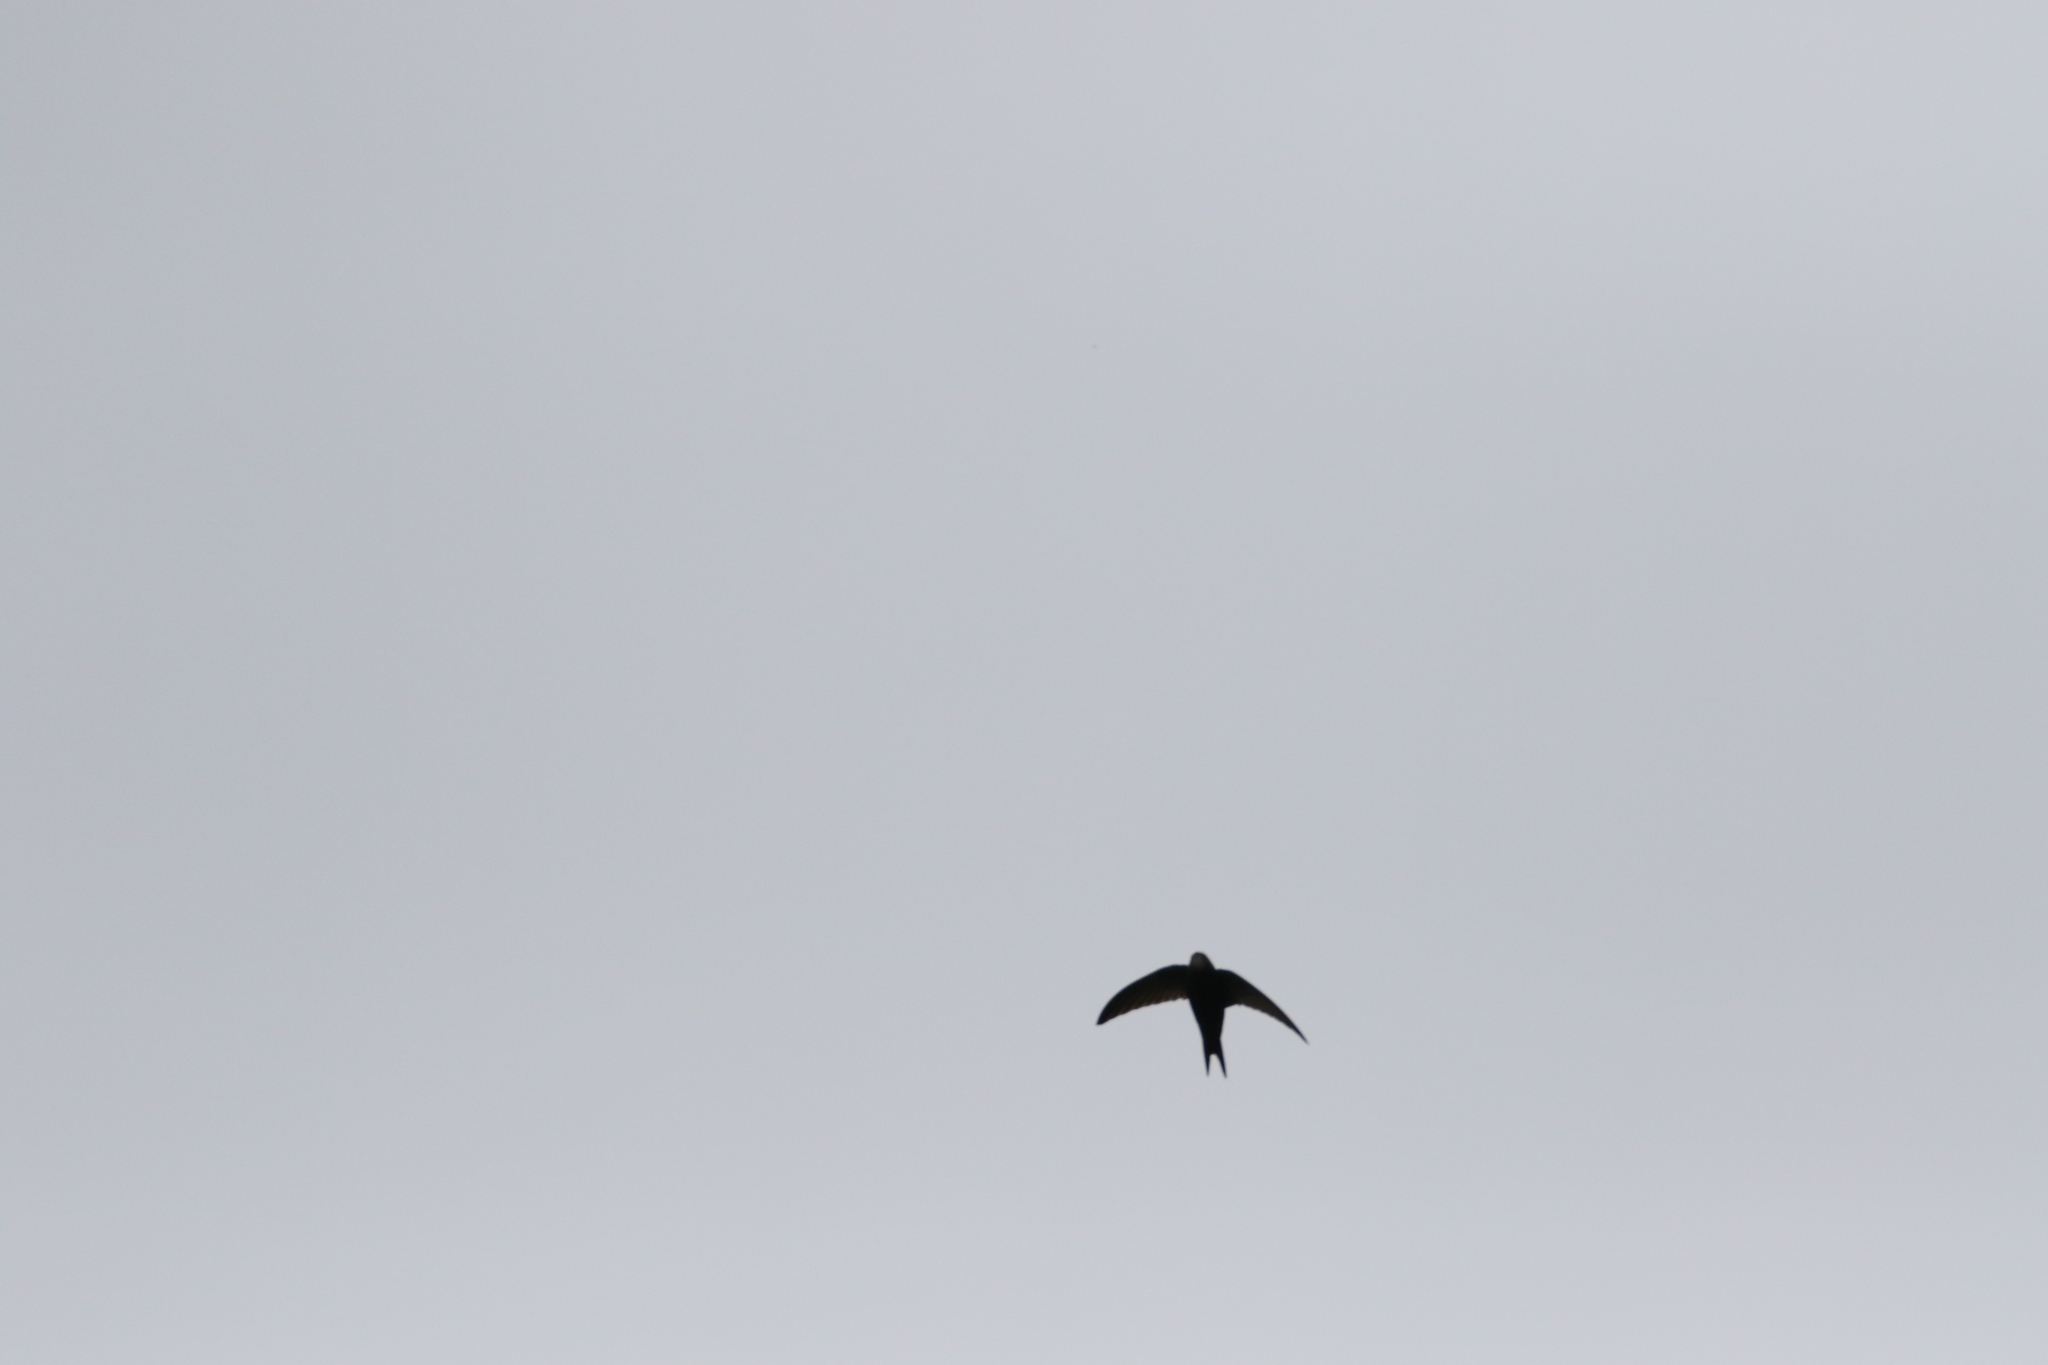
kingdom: Animalia
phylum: Chordata
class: Aves
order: Apodiformes
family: Apodidae
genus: Apus
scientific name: Apus apus
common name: Common swift
